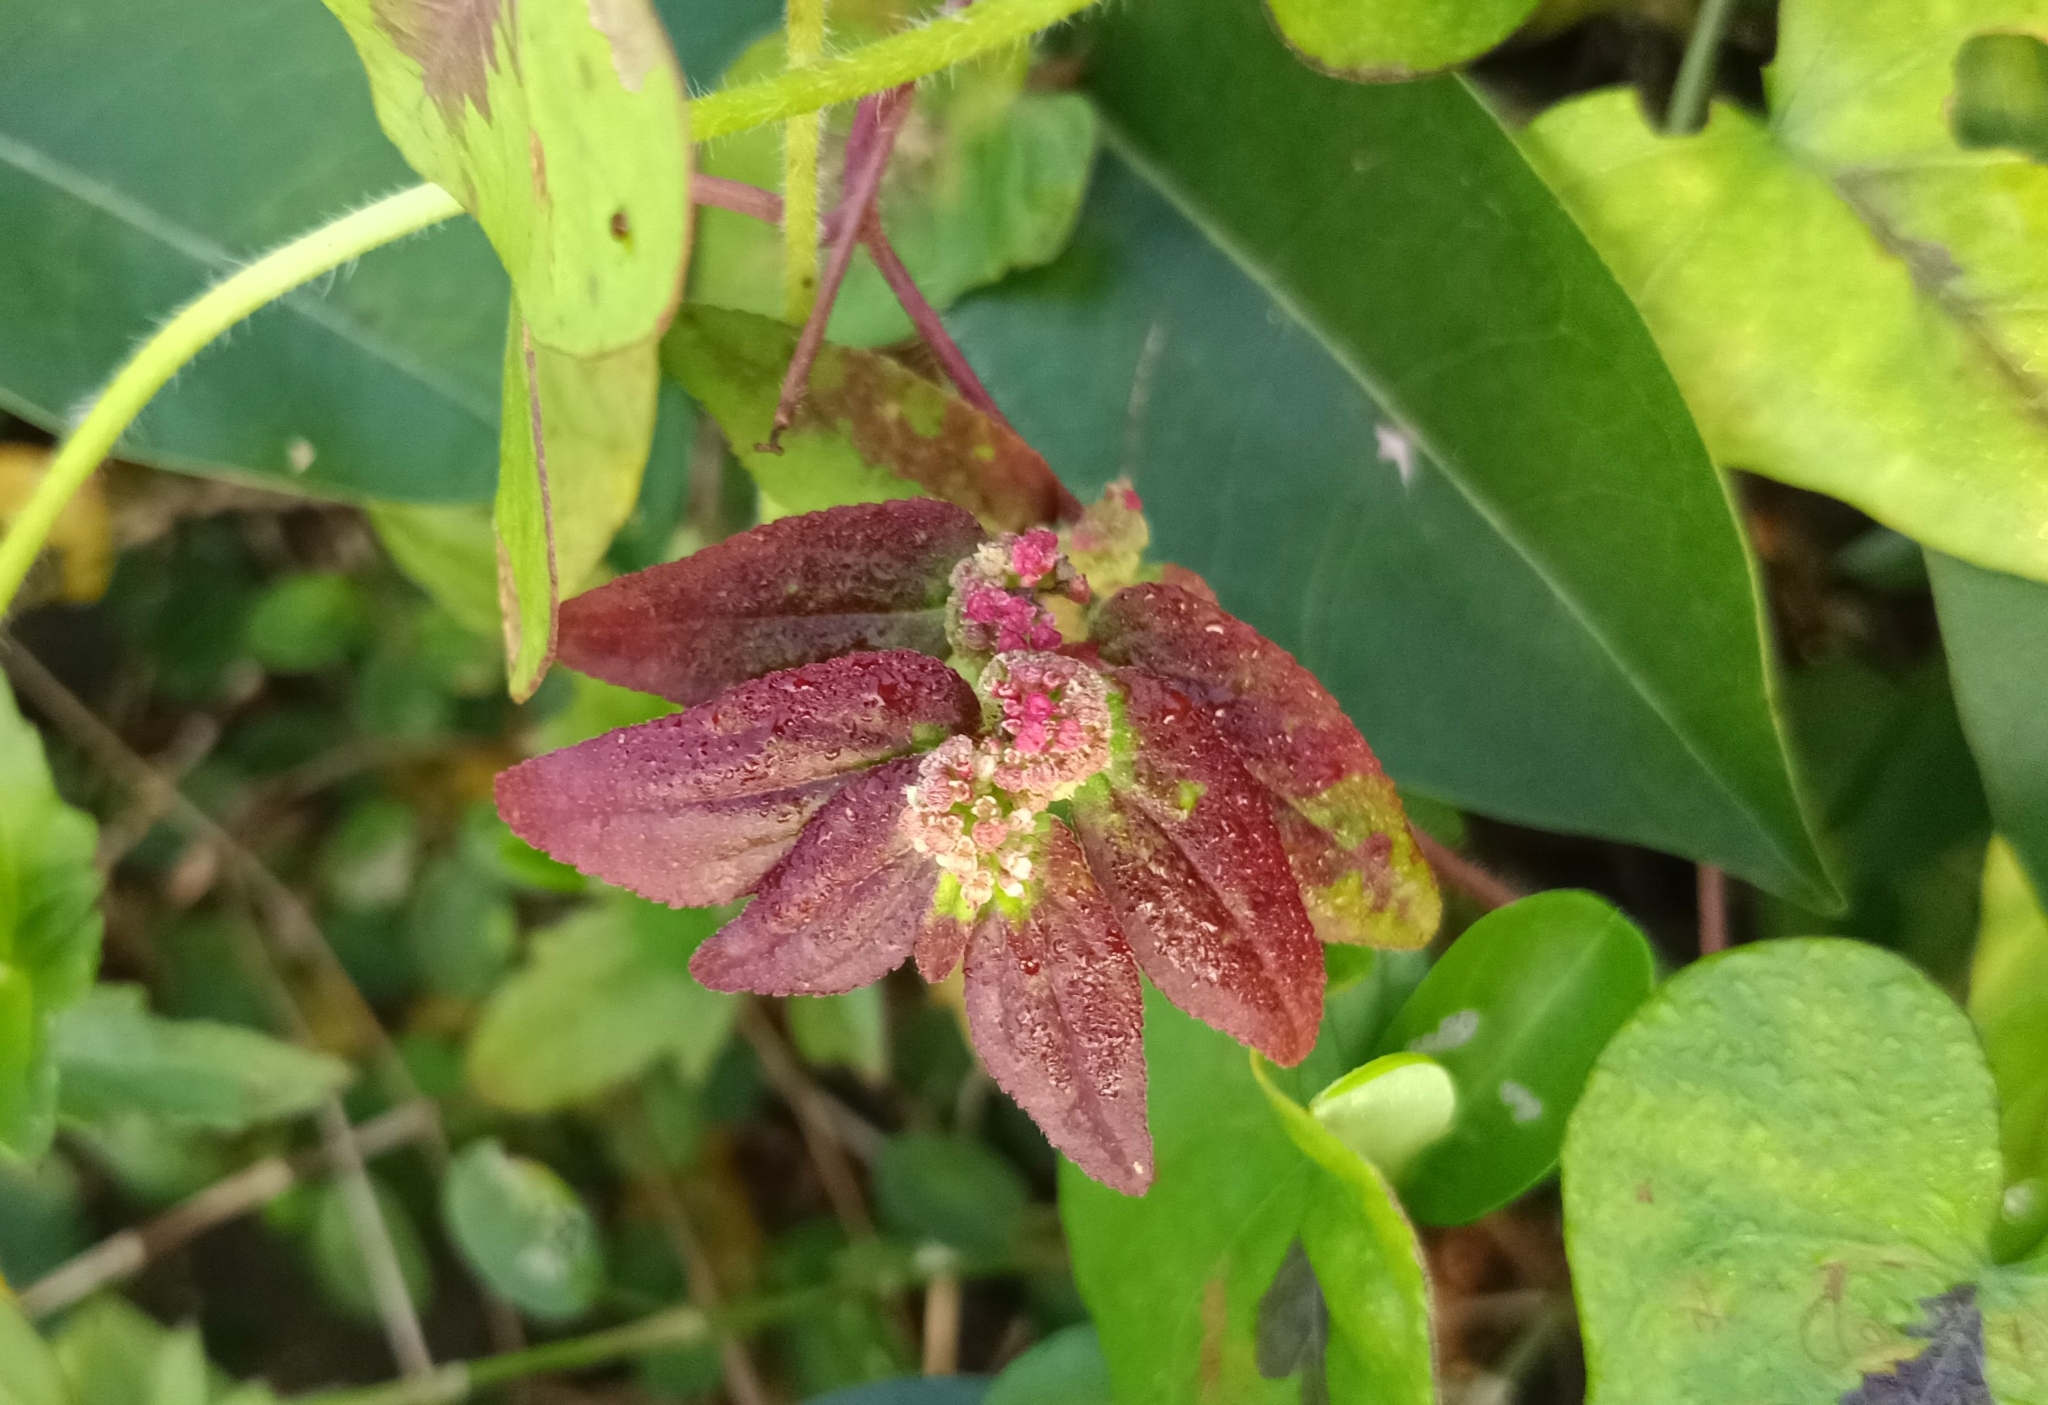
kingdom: Plantae
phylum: Tracheophyta
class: Magnoliopsida
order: Malpighiales
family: Euphorbiaceae
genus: Euphorbia
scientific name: Euphorbia hirta
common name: Pillpod sandmat
